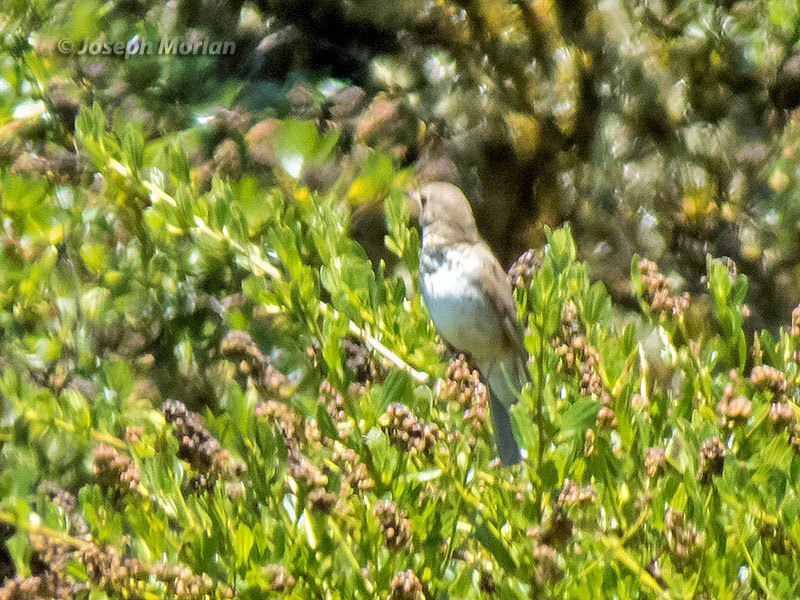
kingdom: Animalia
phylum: Chordata
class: Aves
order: Passeriformes
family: Turdidae
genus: Catharus
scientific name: Catharus ustulatus
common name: Swainson's thrush
